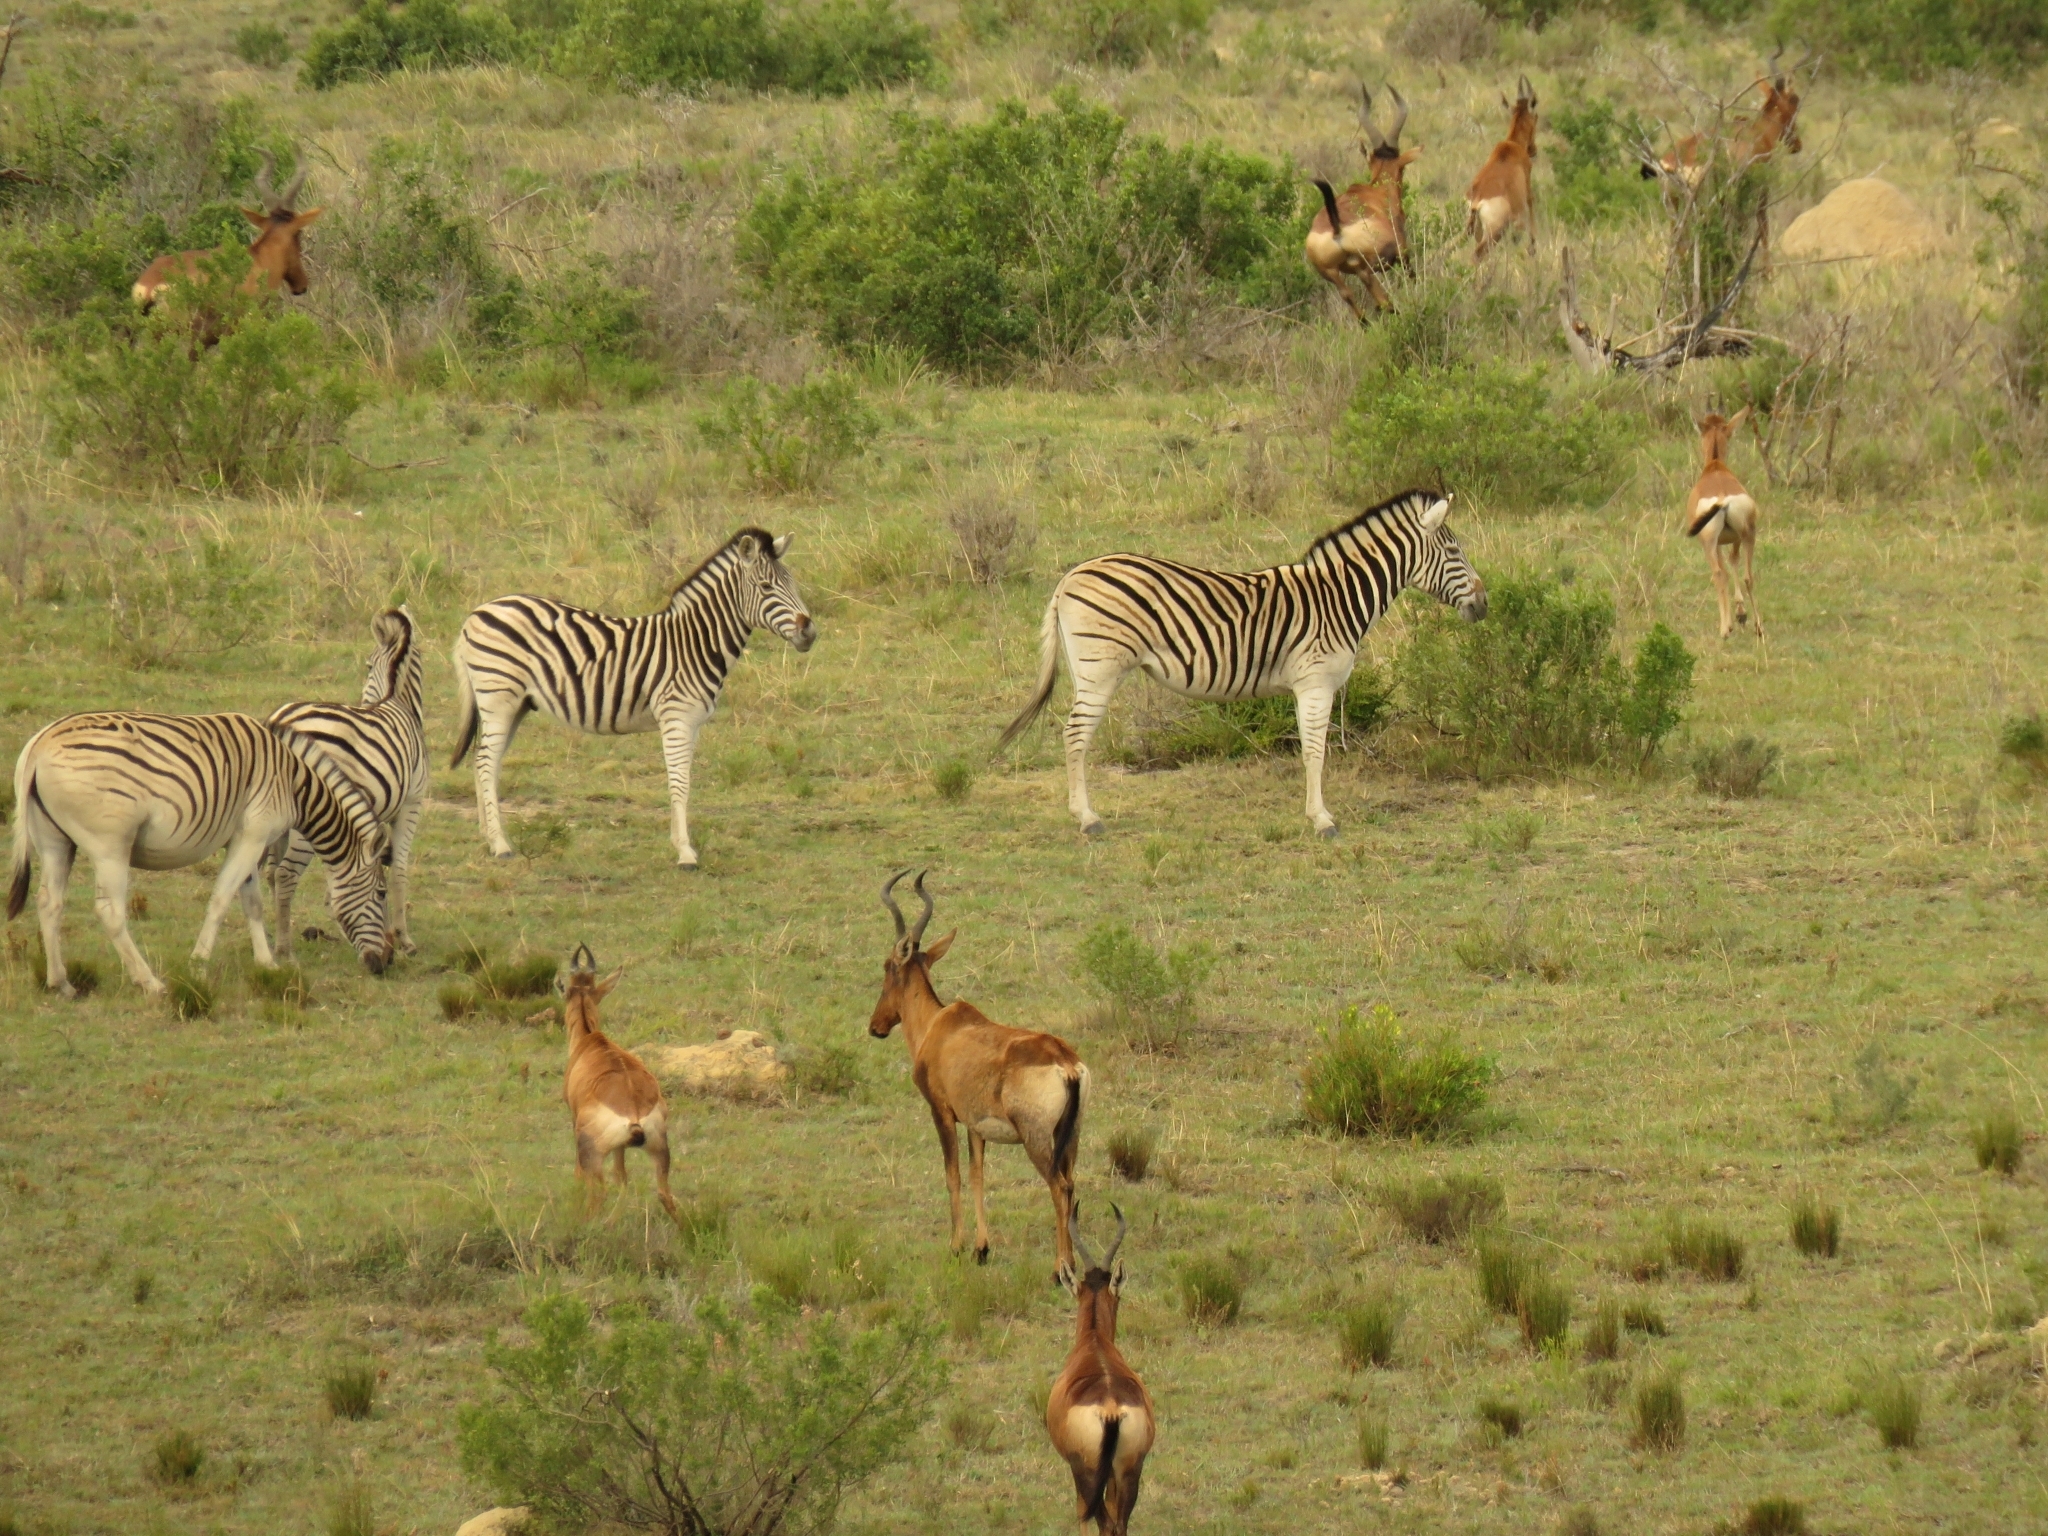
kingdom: Animalia
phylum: Chordata
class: Mammalia
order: Artiodactyla
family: Bovidae
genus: Alcelaphus
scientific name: Alcelaphus caama
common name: Red hartebeest
